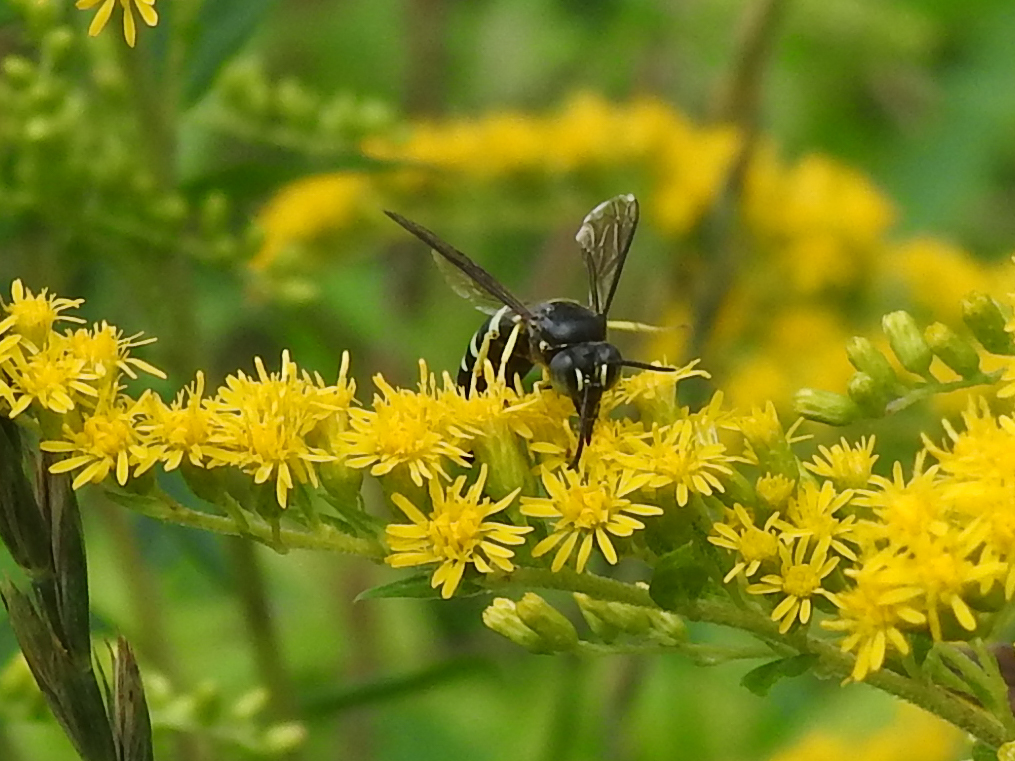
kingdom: Animalia
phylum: Arthropoda
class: Insecta
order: Hymenoptera
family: Crabronidae
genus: Bicyrtes
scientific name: Bicyrtes quadrifasciatus
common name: Four-banded stink bug hunter wasp
